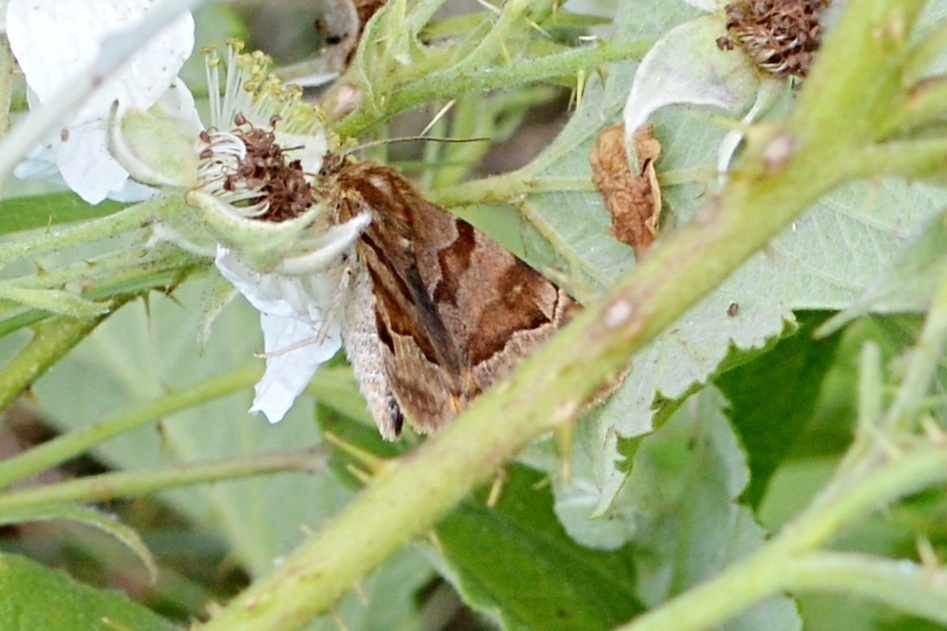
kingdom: Animalia
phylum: Arthropoda
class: Insecta
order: Lepidoptera
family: Erebidae
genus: Euclidia
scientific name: Euclidia glyphica
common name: Burnet companion
